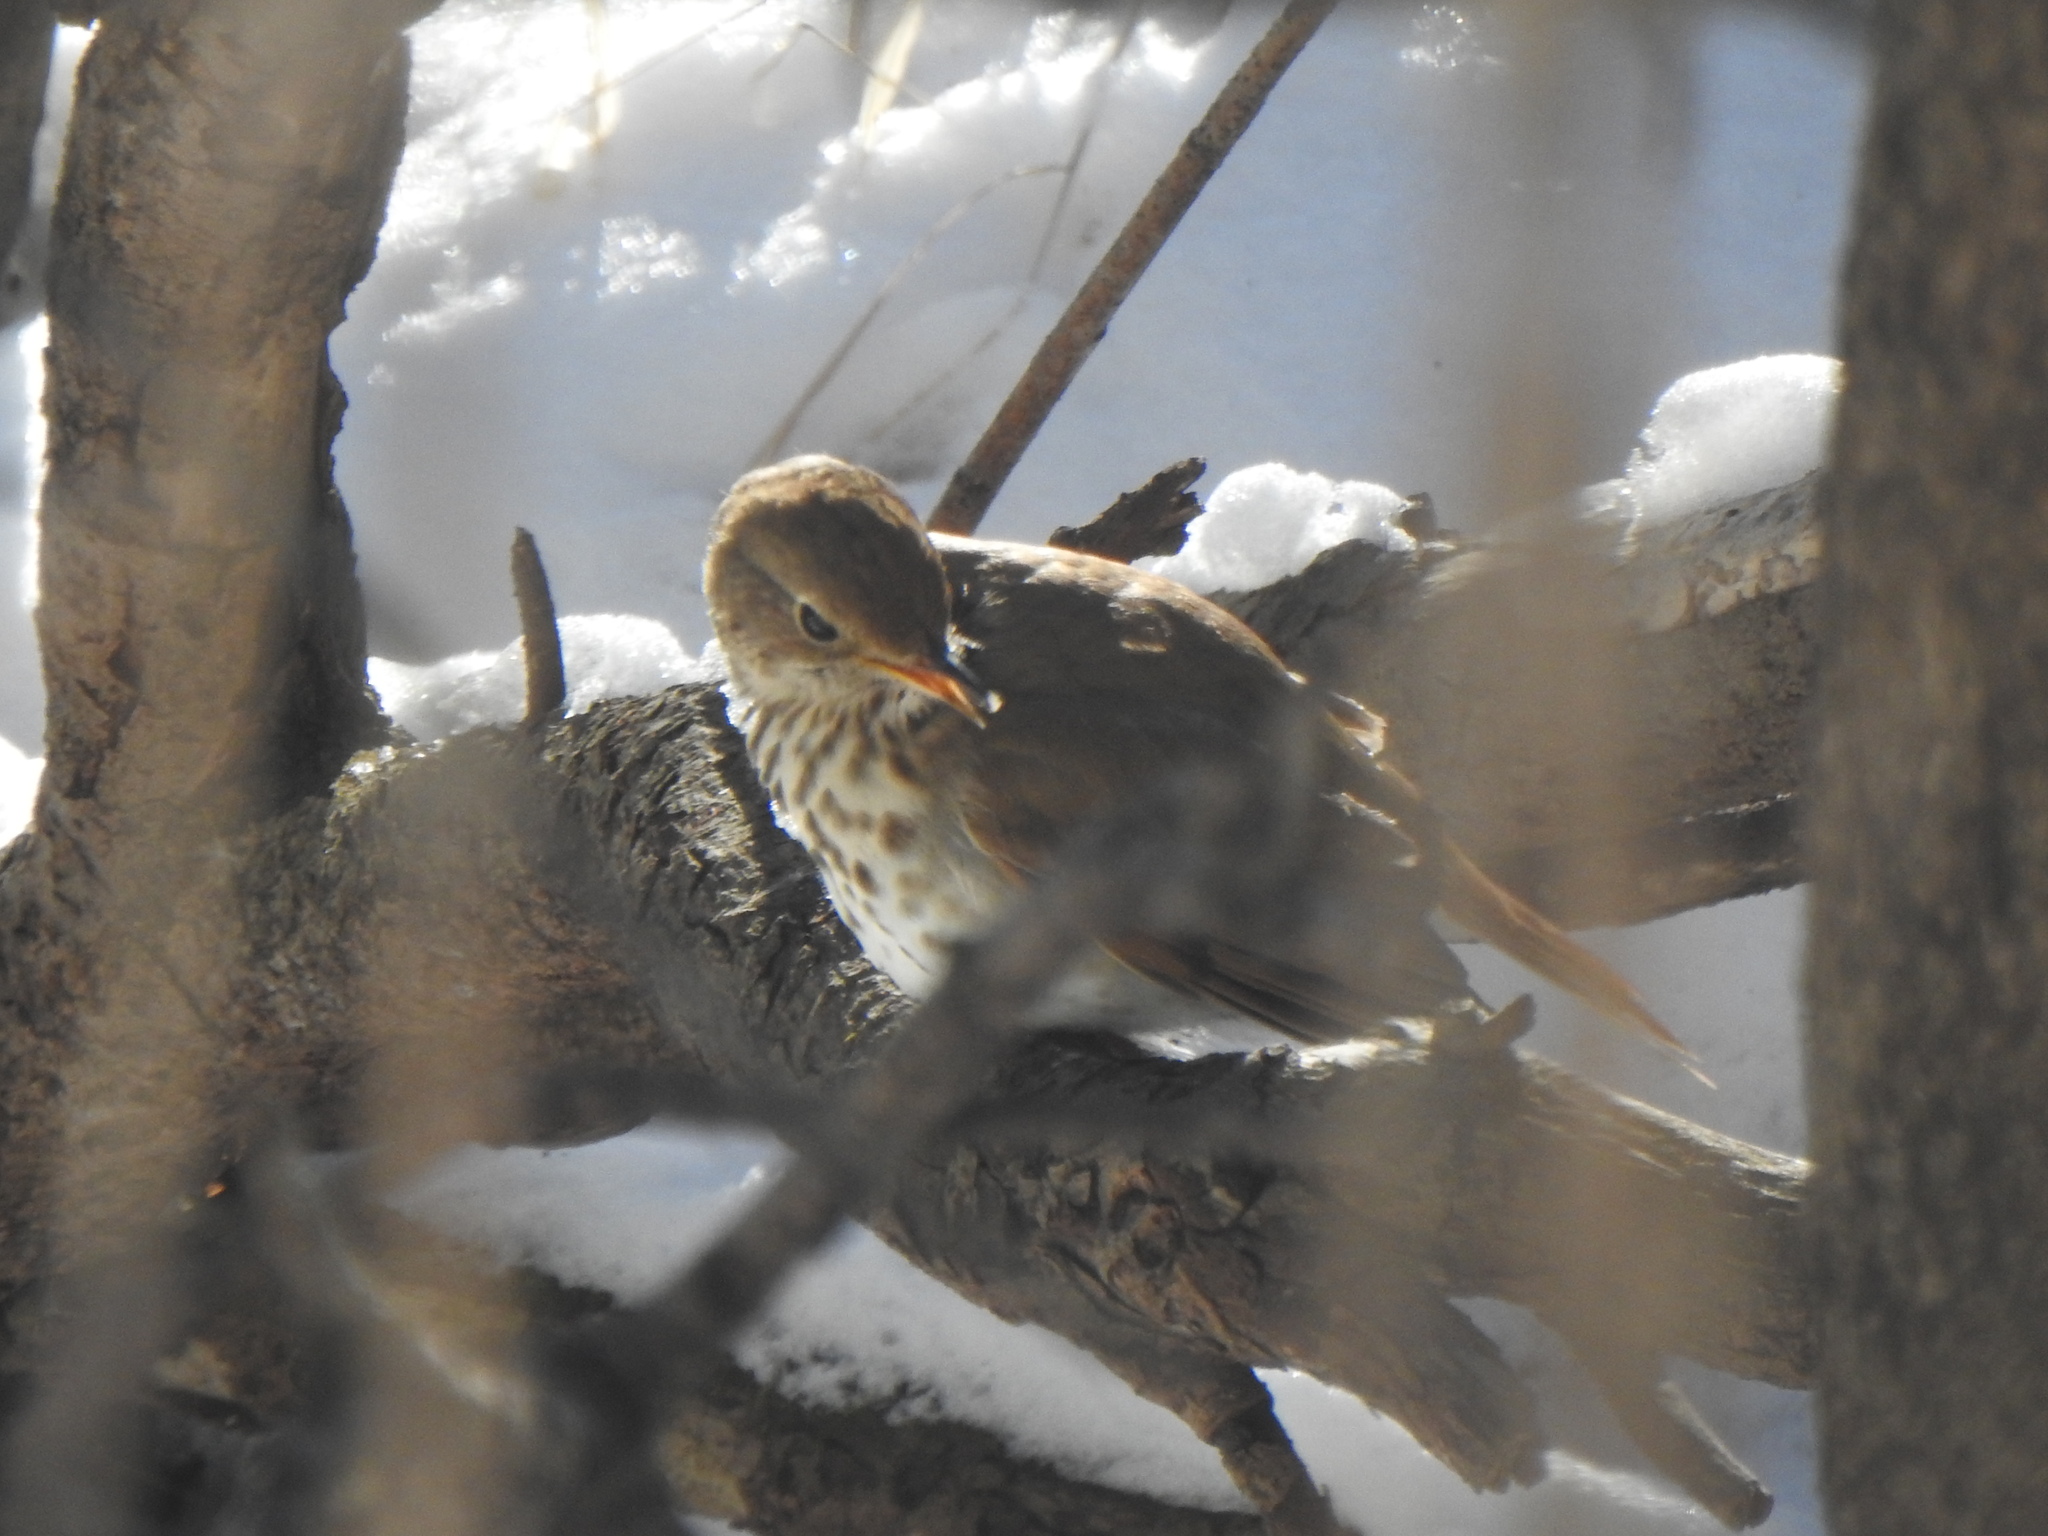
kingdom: Animalia
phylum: Chordata
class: Aves
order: Passeriformes
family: Turdidae
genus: Catharus
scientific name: Catharus guttatus
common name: Hermit thrush
